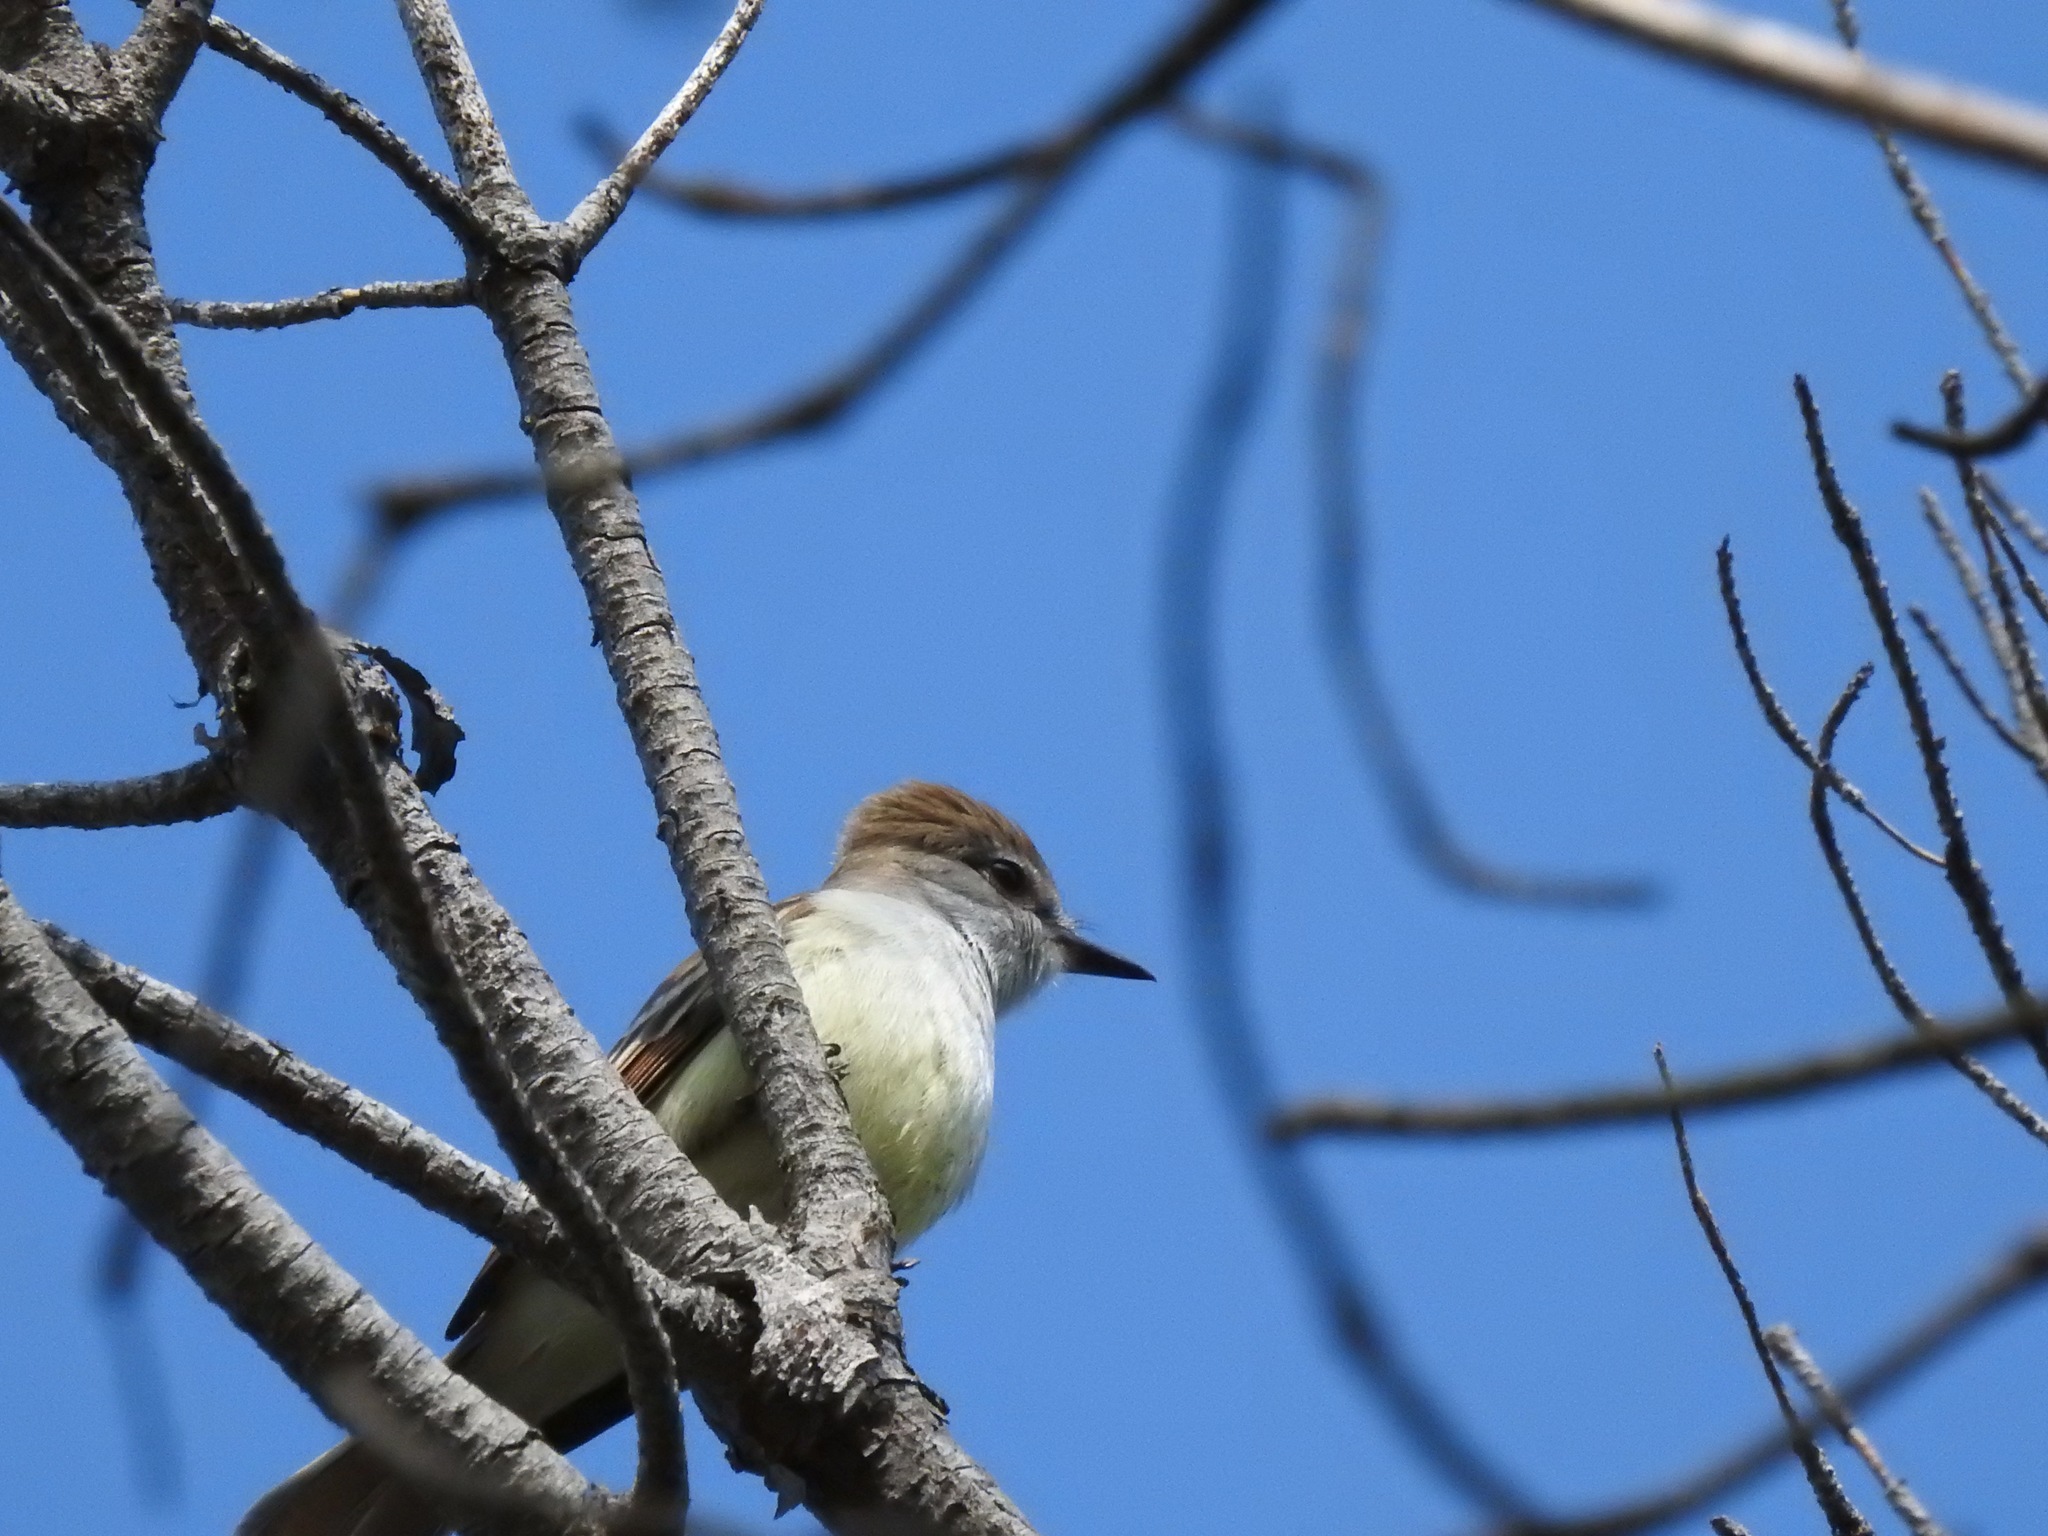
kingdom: Animalia
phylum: Chordata
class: Aves
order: Passeriformes
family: Tyrannidae
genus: Myiarchus
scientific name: Myiarchus cinerascens
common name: Ash-throated flycatcher
